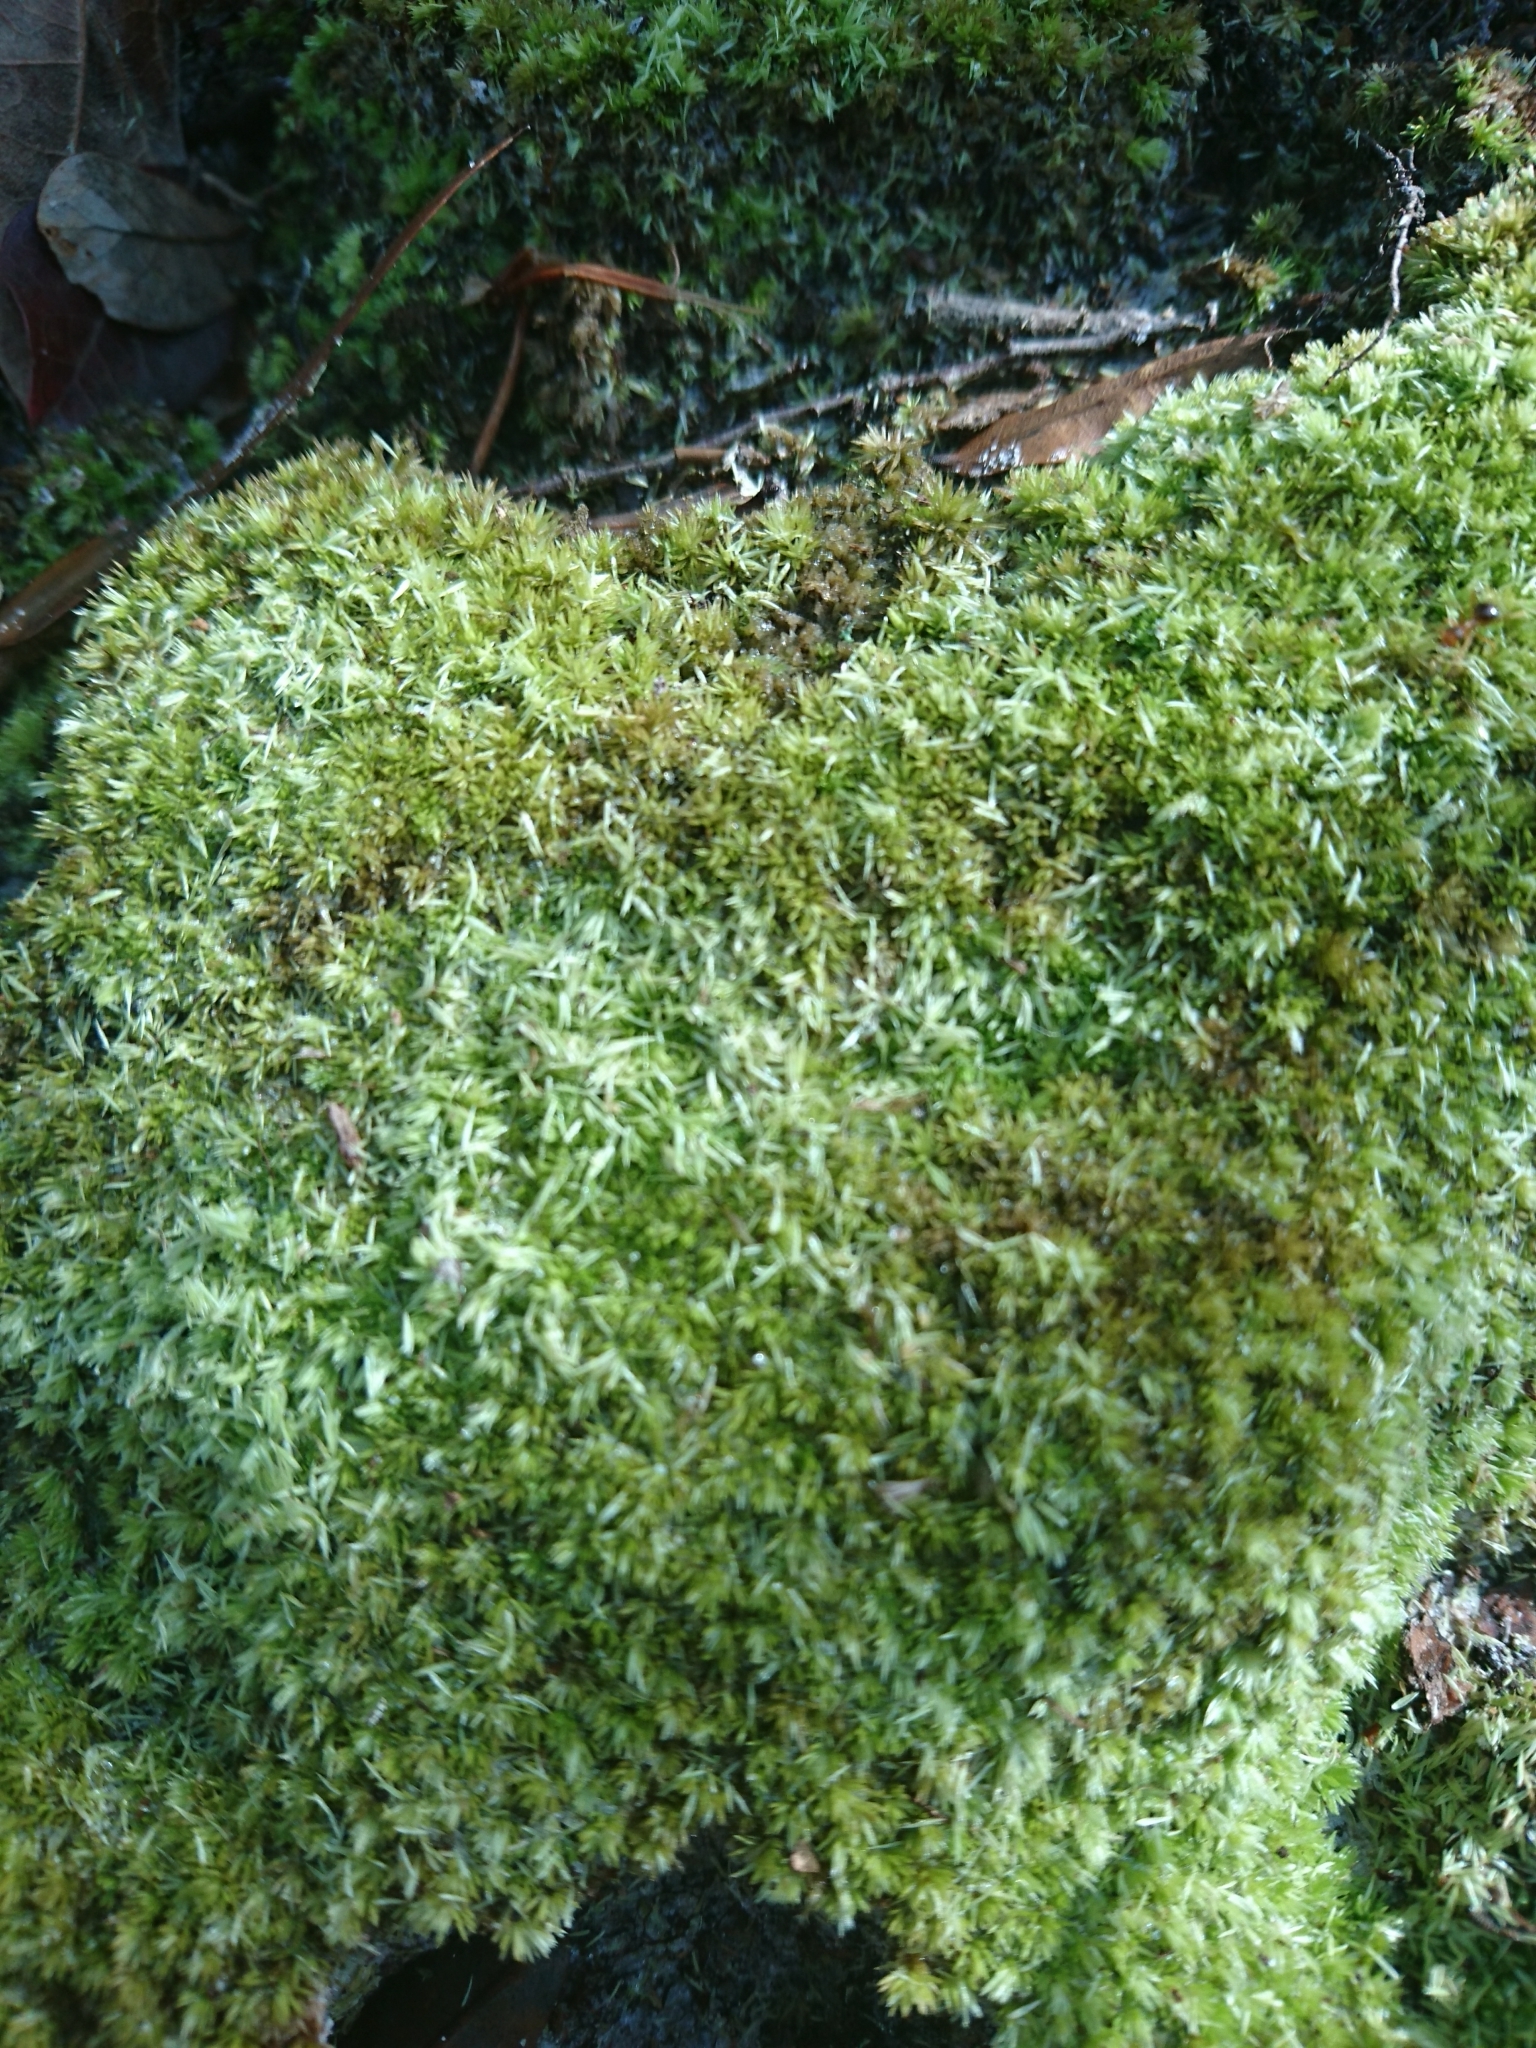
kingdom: Plantae
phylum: Bryophyta
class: Bryopsida
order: Dicranales
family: Leucobryaceae
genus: Leucobryum
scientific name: Leucobryum albidum
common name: White moss
